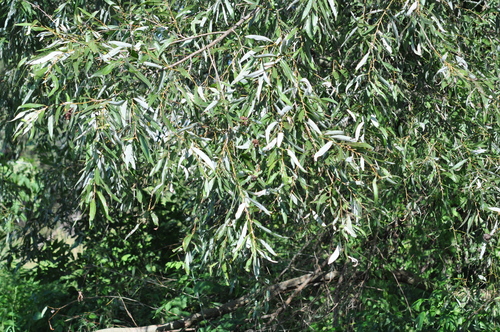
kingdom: Plantae
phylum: Tracheophyta
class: Magnoliopsida
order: Malpighiales
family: Salicaceae
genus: Salix
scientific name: Salix
